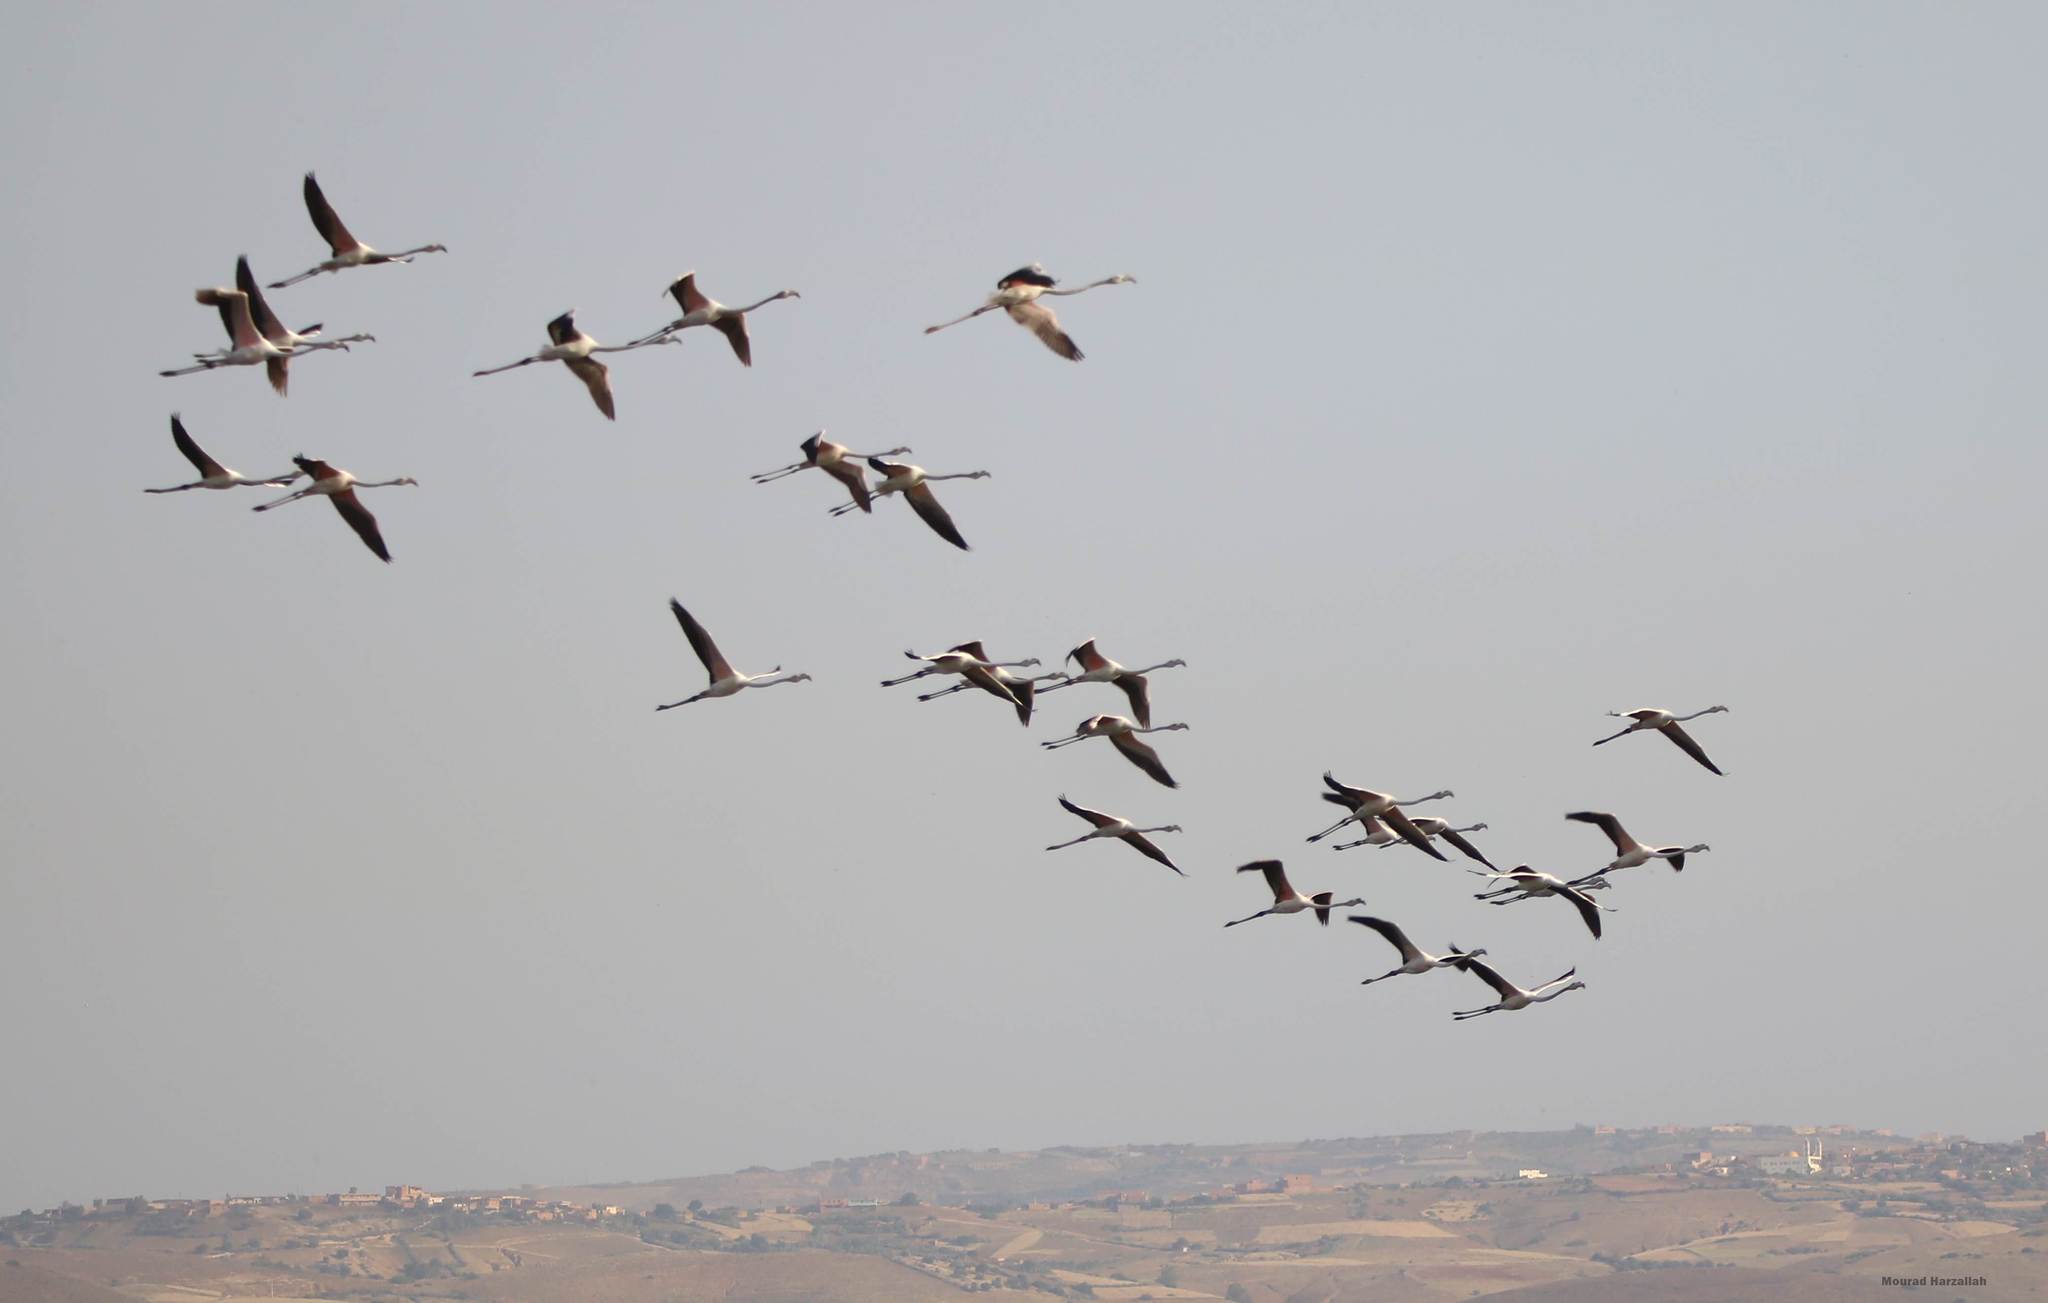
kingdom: Animalia
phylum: Chordata
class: Aves
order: Phoenicopteriformes
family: Phoenicopteridae
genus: Phoenicopterus
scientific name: Phoenicopterus roseus
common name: Greater flamingo
